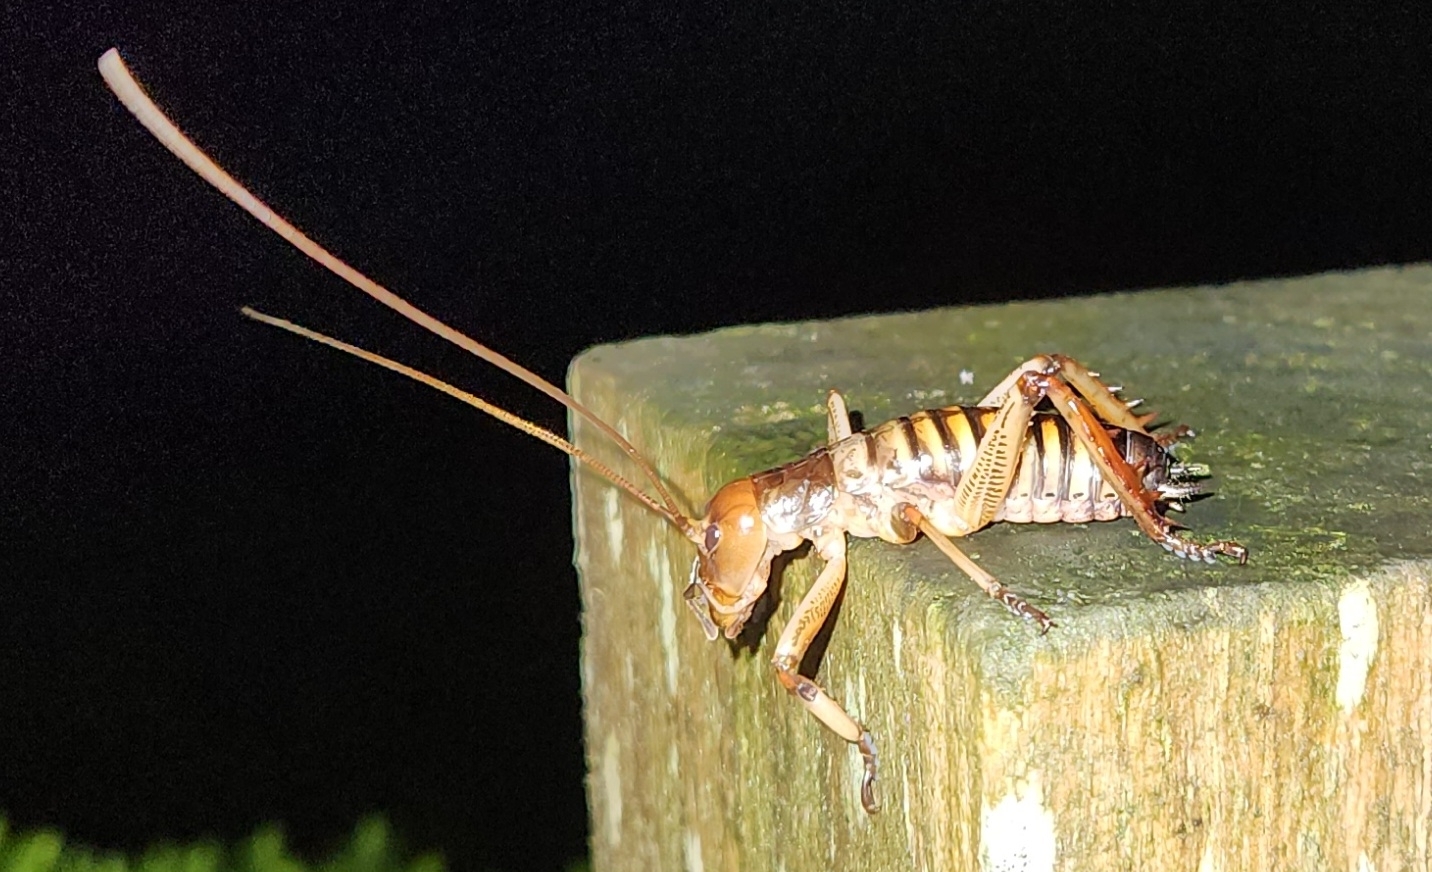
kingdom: Animalia
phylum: Arthropoda
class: Insecta
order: Orthoptera
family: Anostostomatidae
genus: Hemideina
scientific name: Hemideina crassidens
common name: Wellington tree weta
